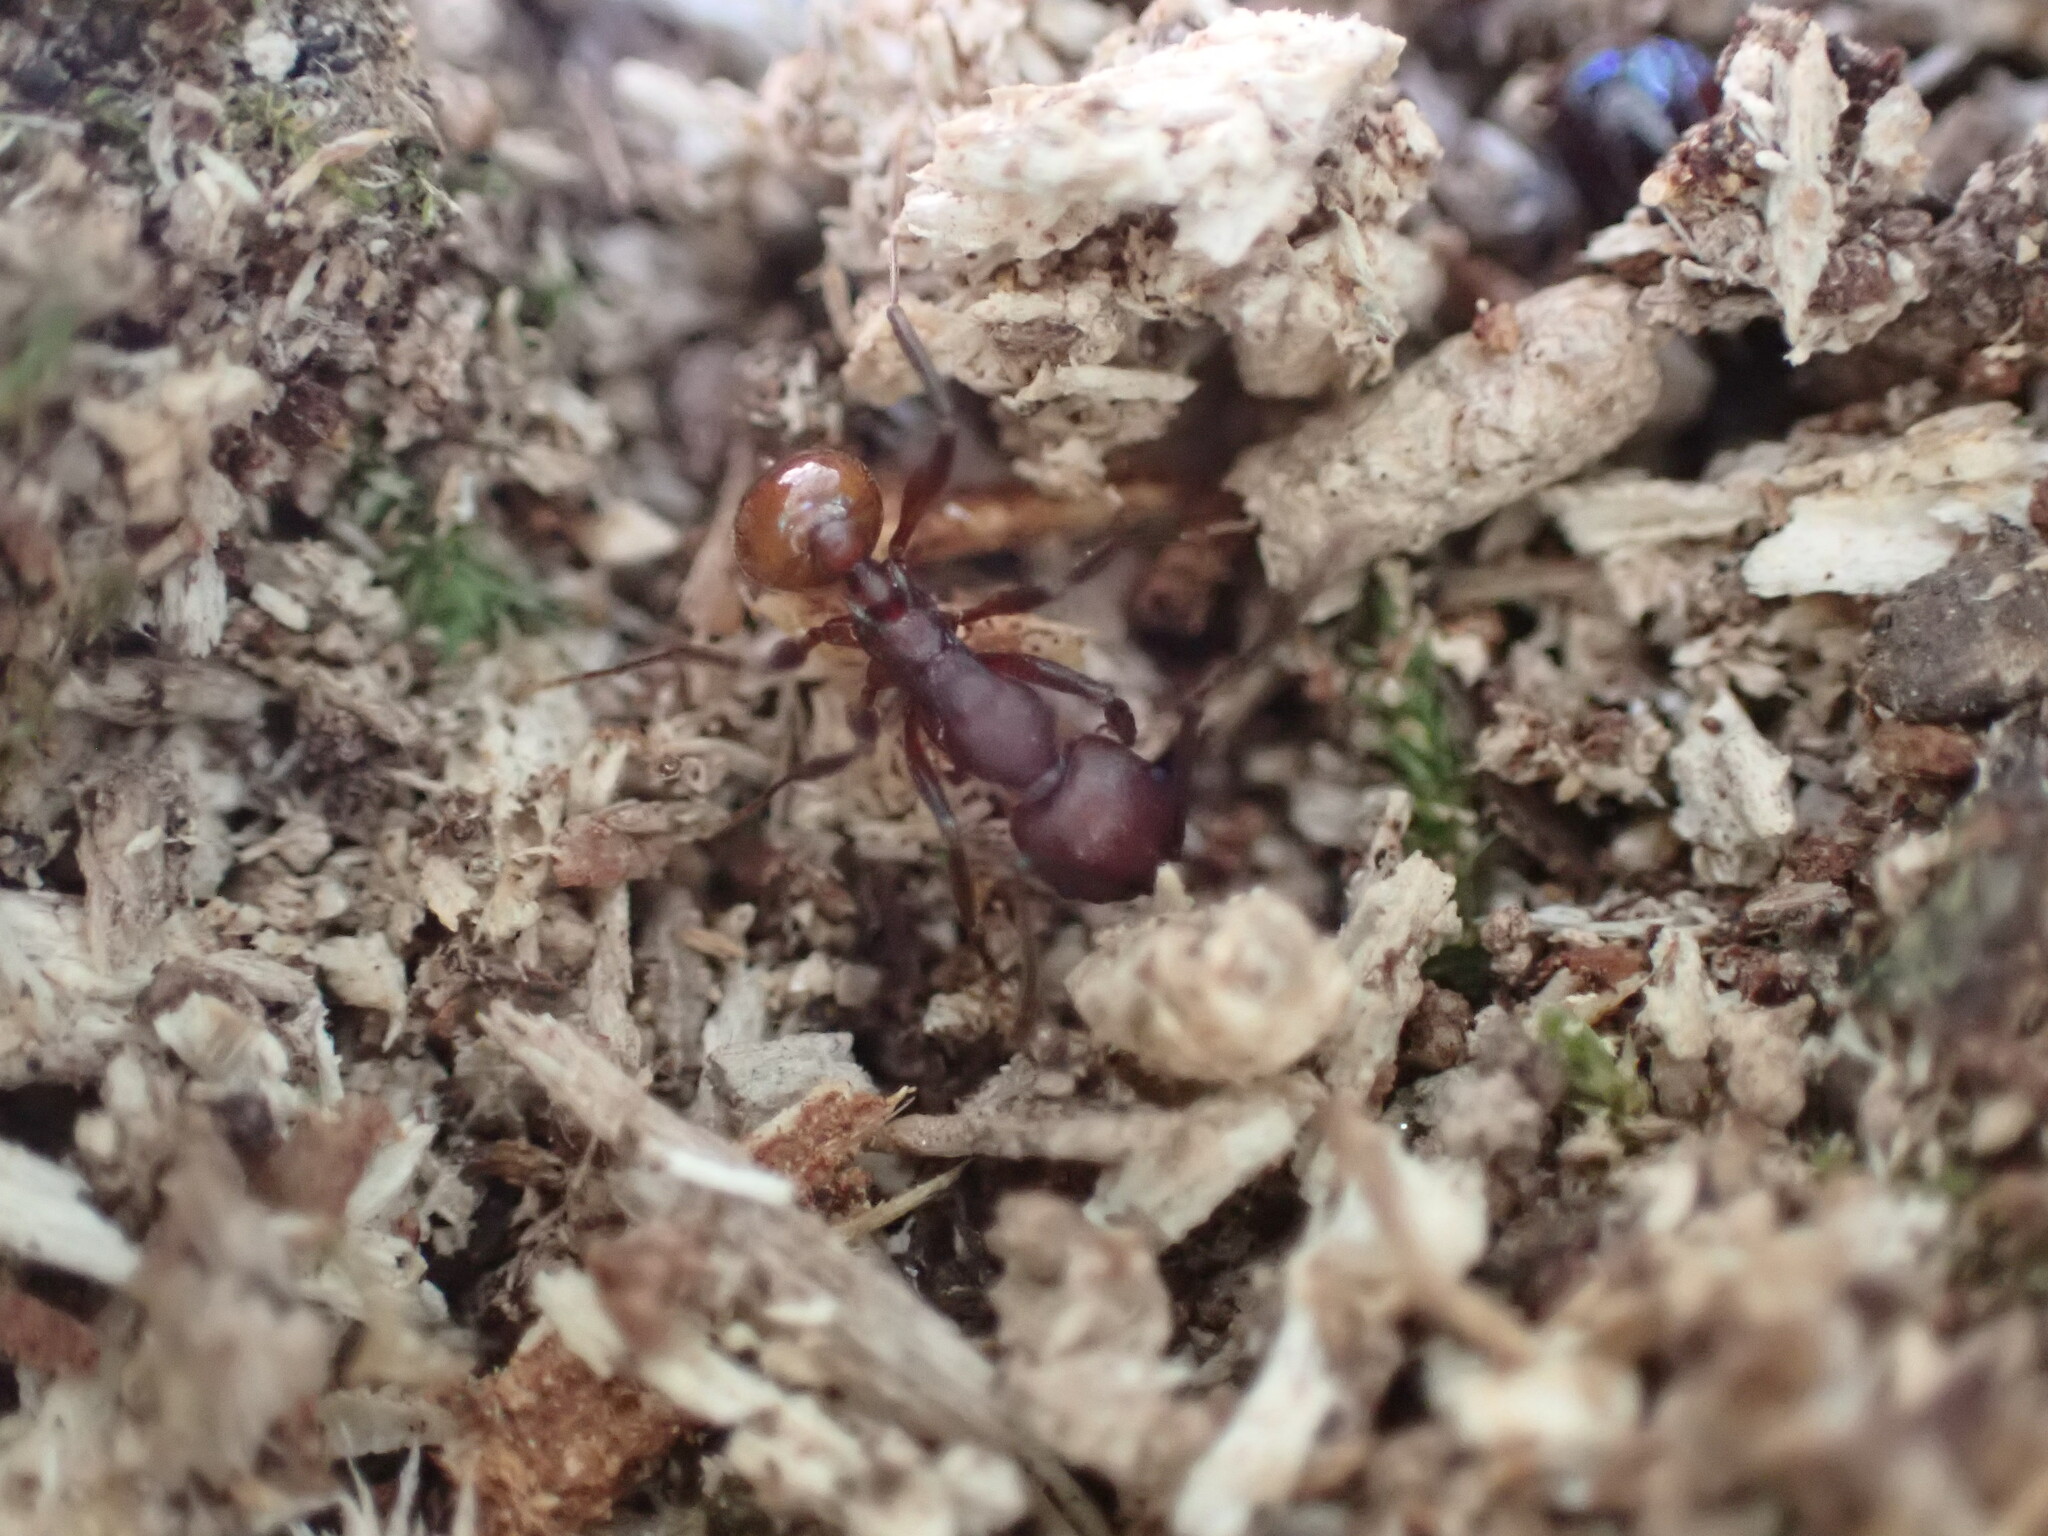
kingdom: Animalia
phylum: Arthropoda
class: Insecta
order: Hymenoptera
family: Formicidae
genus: Aphaenogaster
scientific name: Aphaenogaster tennesseensis
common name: Tennessee thread-waisted ant
